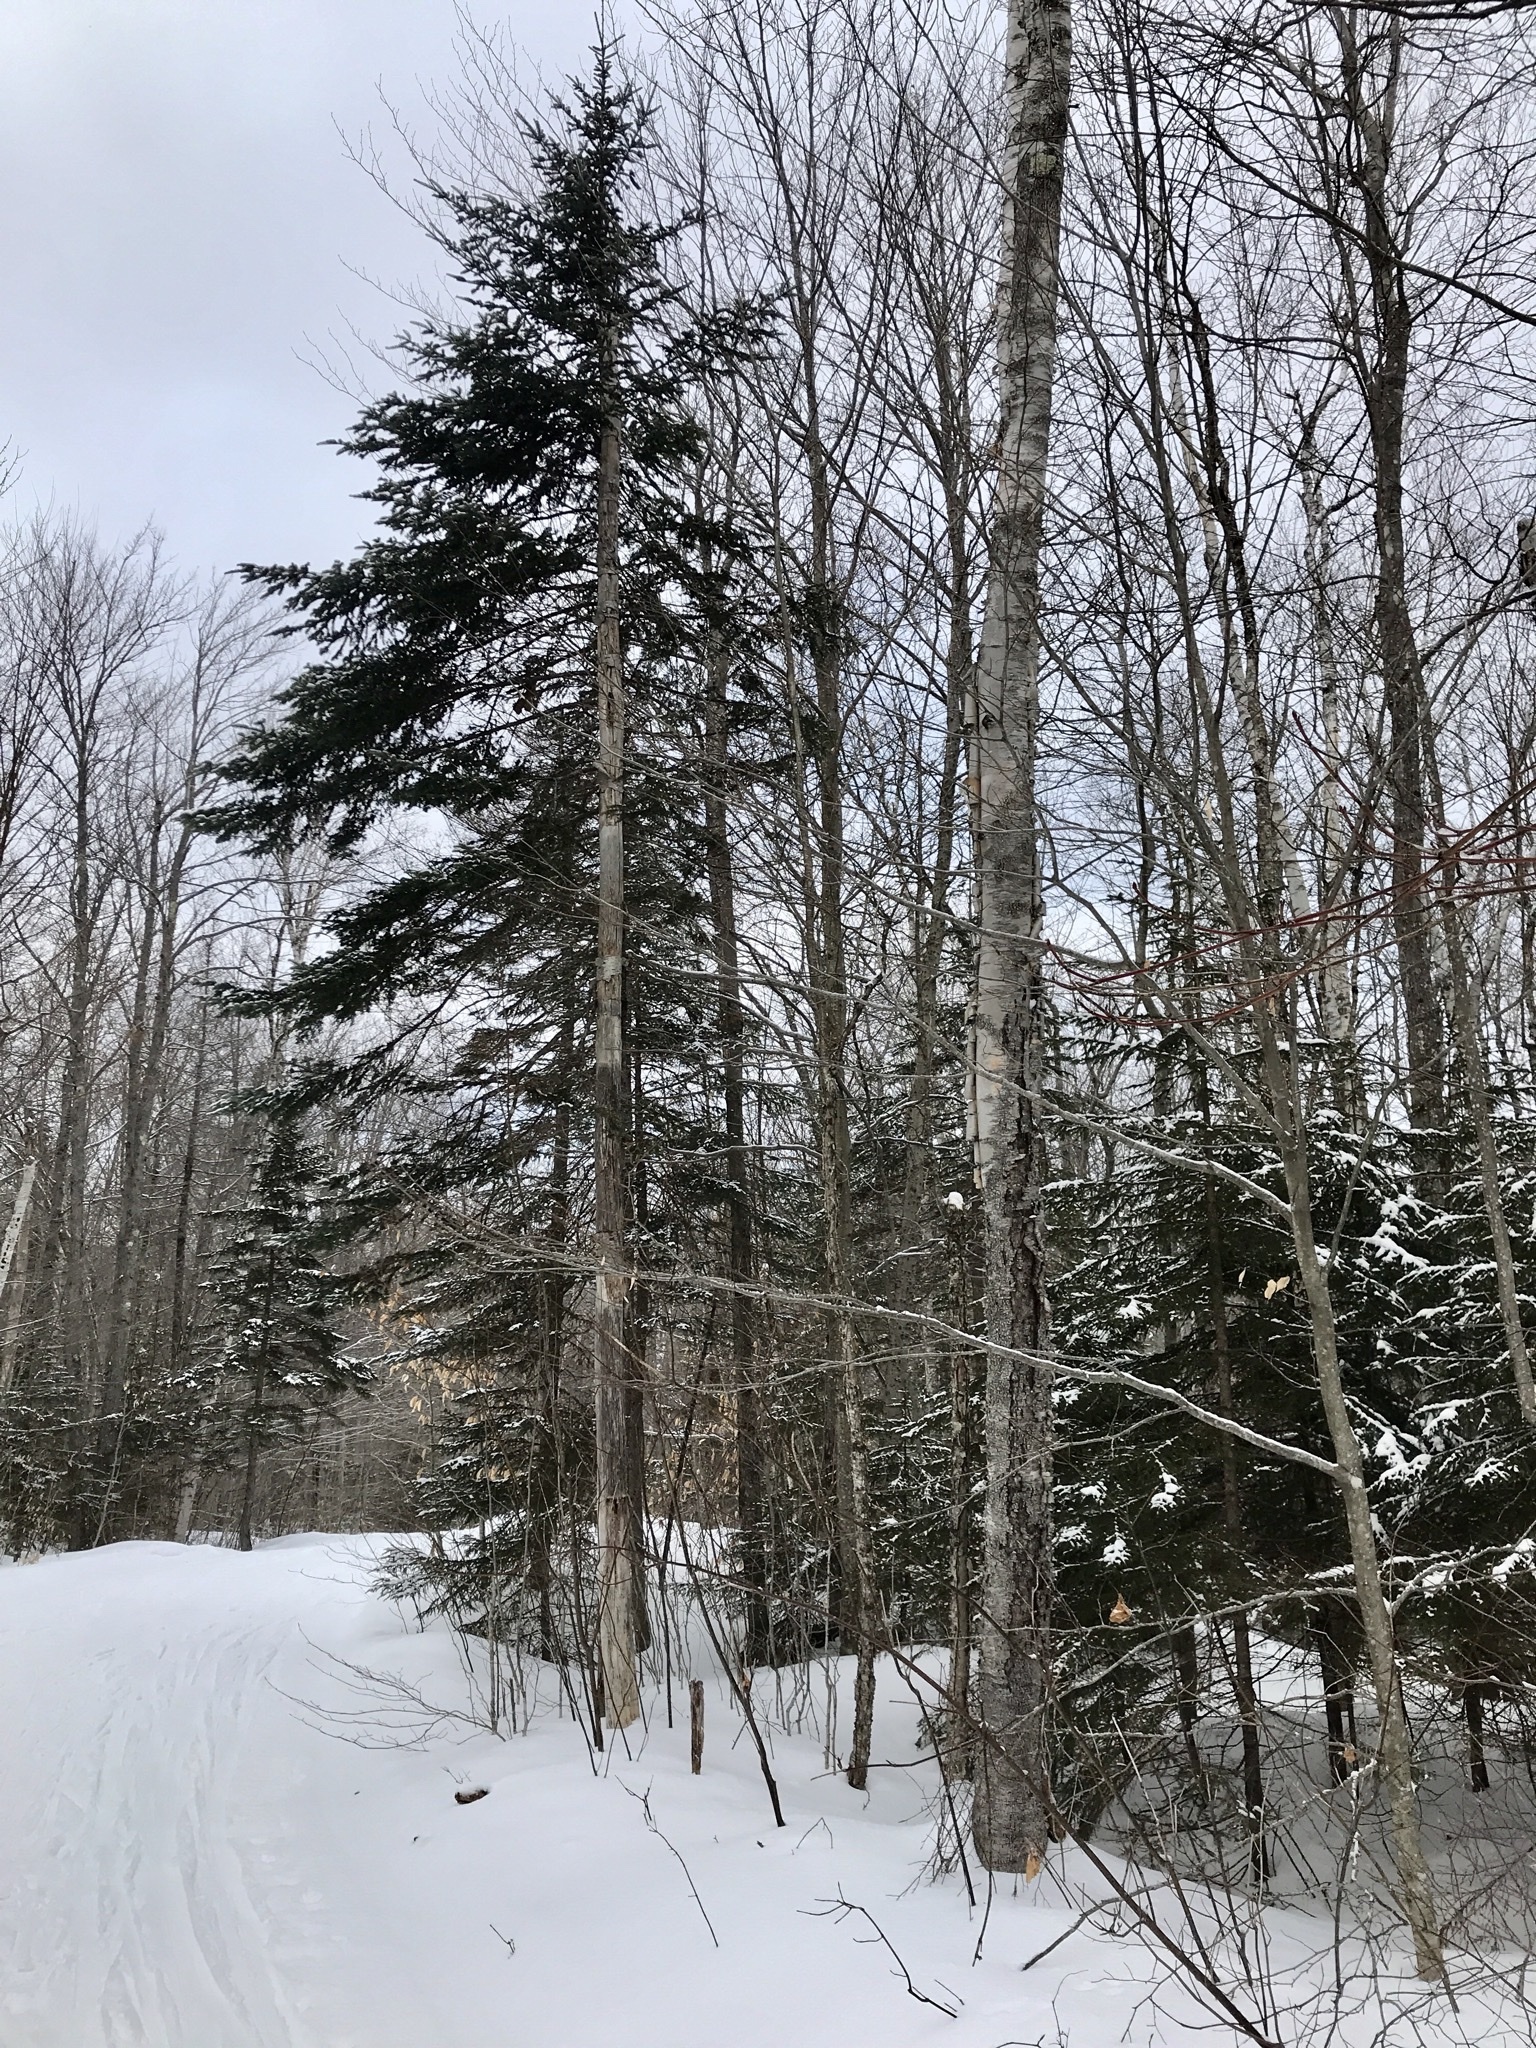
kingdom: Plantae
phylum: Tracheophyta
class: Pinopsida
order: Pinales
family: Pinaceae
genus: Picea
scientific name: Picea rubens
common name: Red spruce
